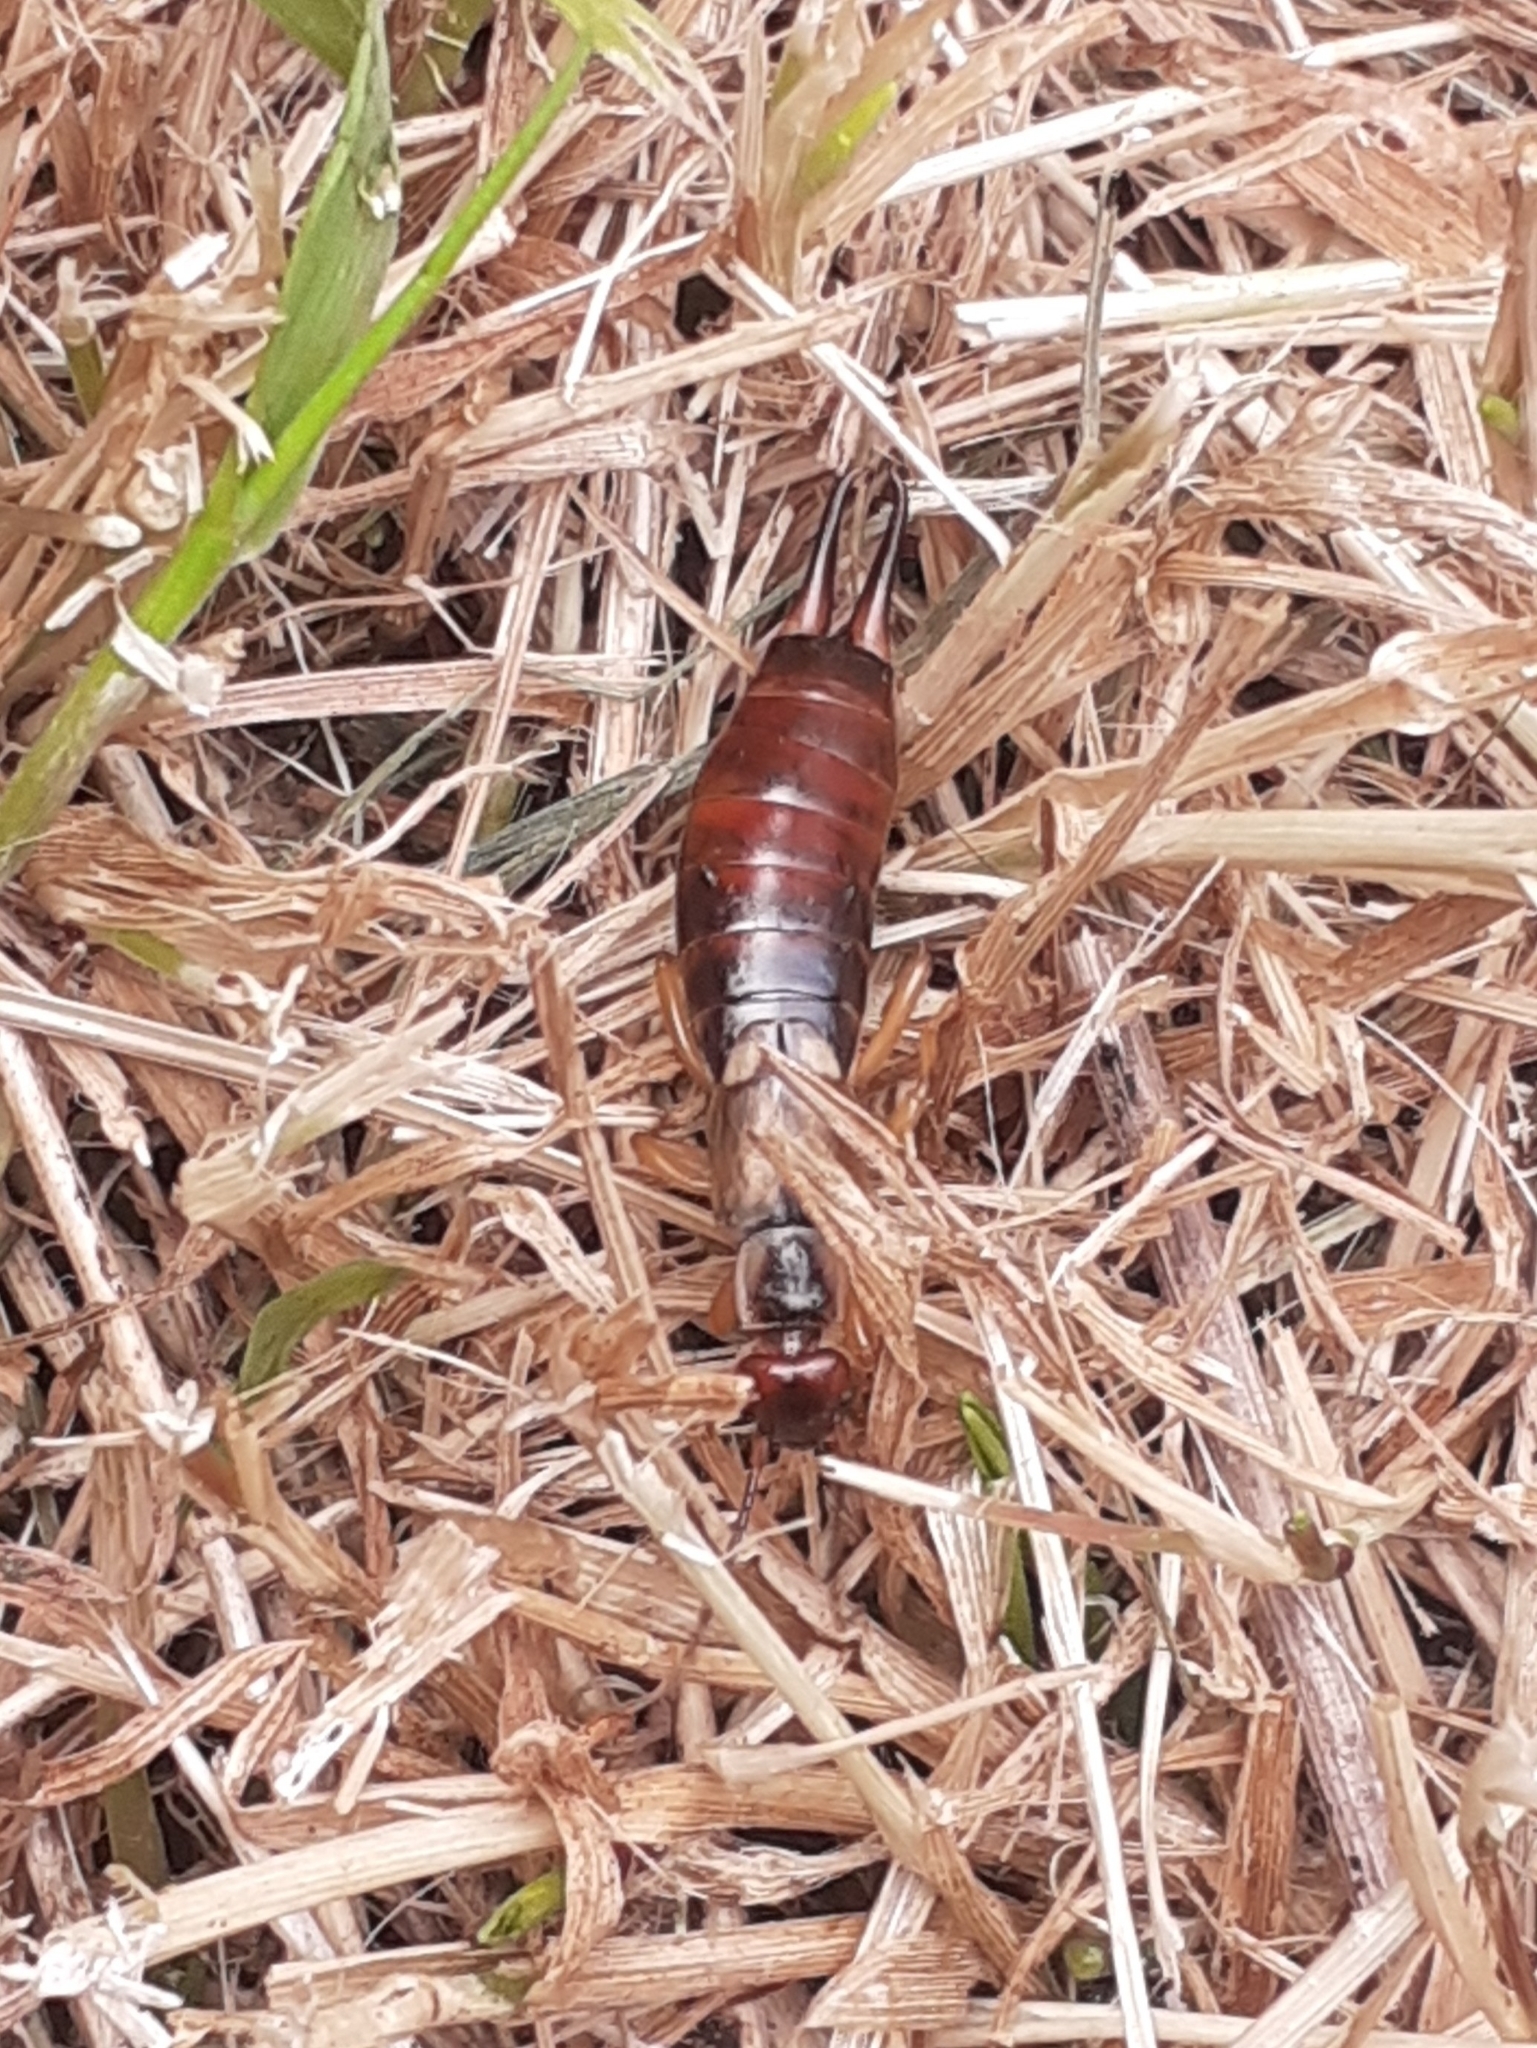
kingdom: Animalia
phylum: Arthropoda
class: Insecta
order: Dermaptera
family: Forficulidae
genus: Forficula
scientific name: Forficula
